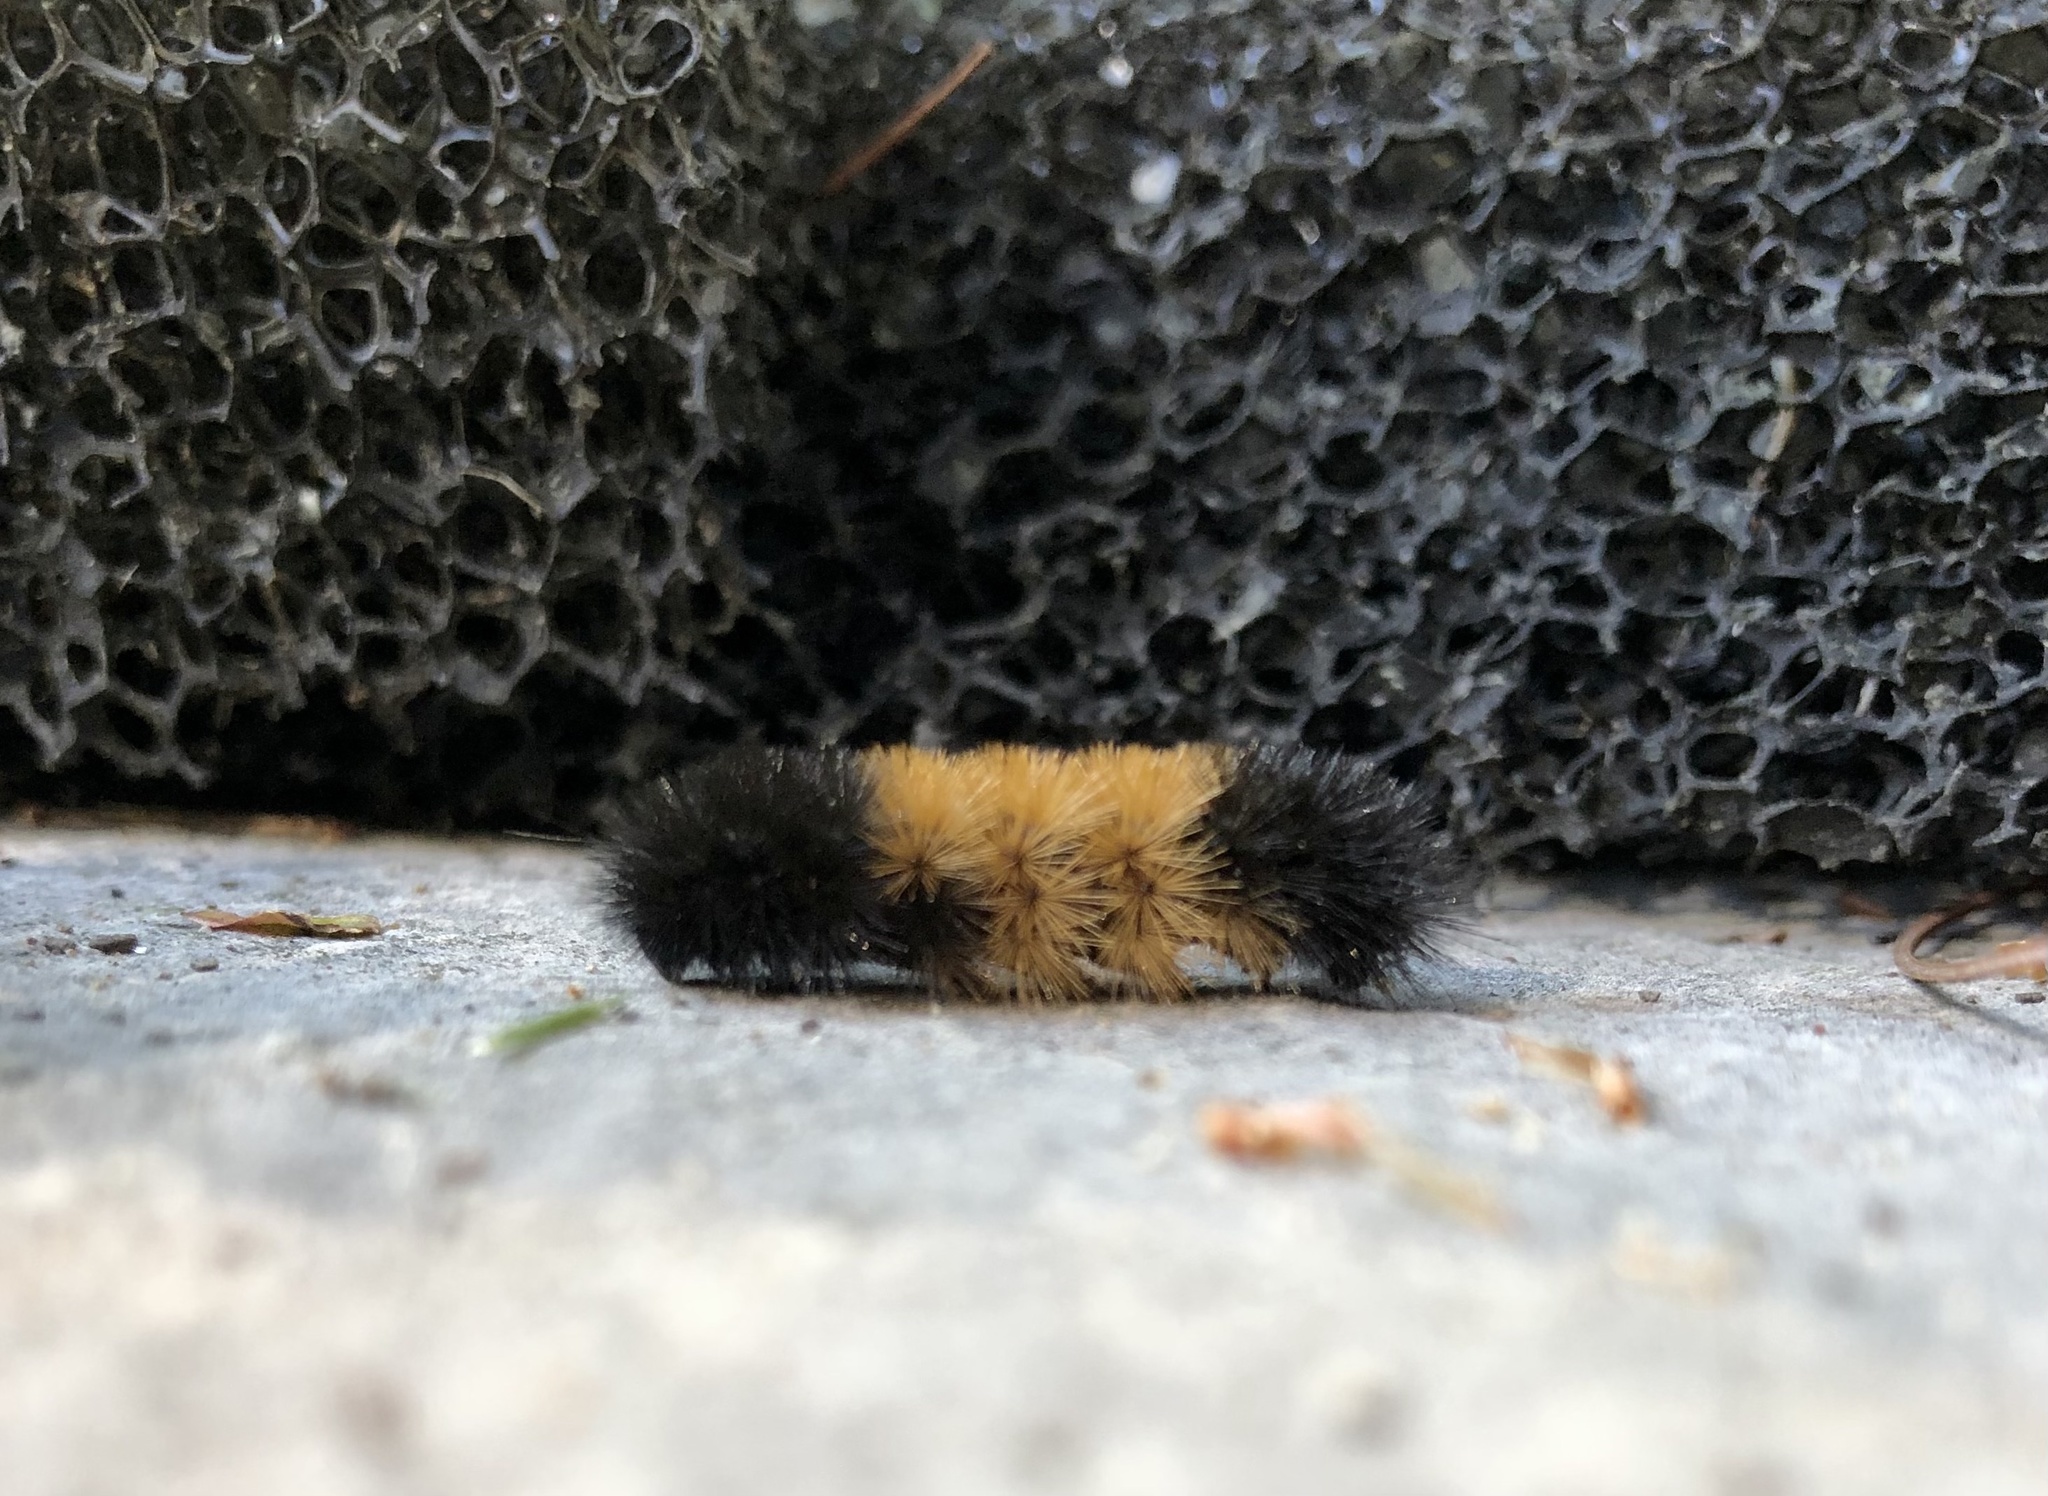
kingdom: Animalia
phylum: Arthropoda
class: Insecta
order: Lepidoptera
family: Erebidae
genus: Pyrrharctia
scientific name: Pyrrharctia isabella
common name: Isabella tiger moth
